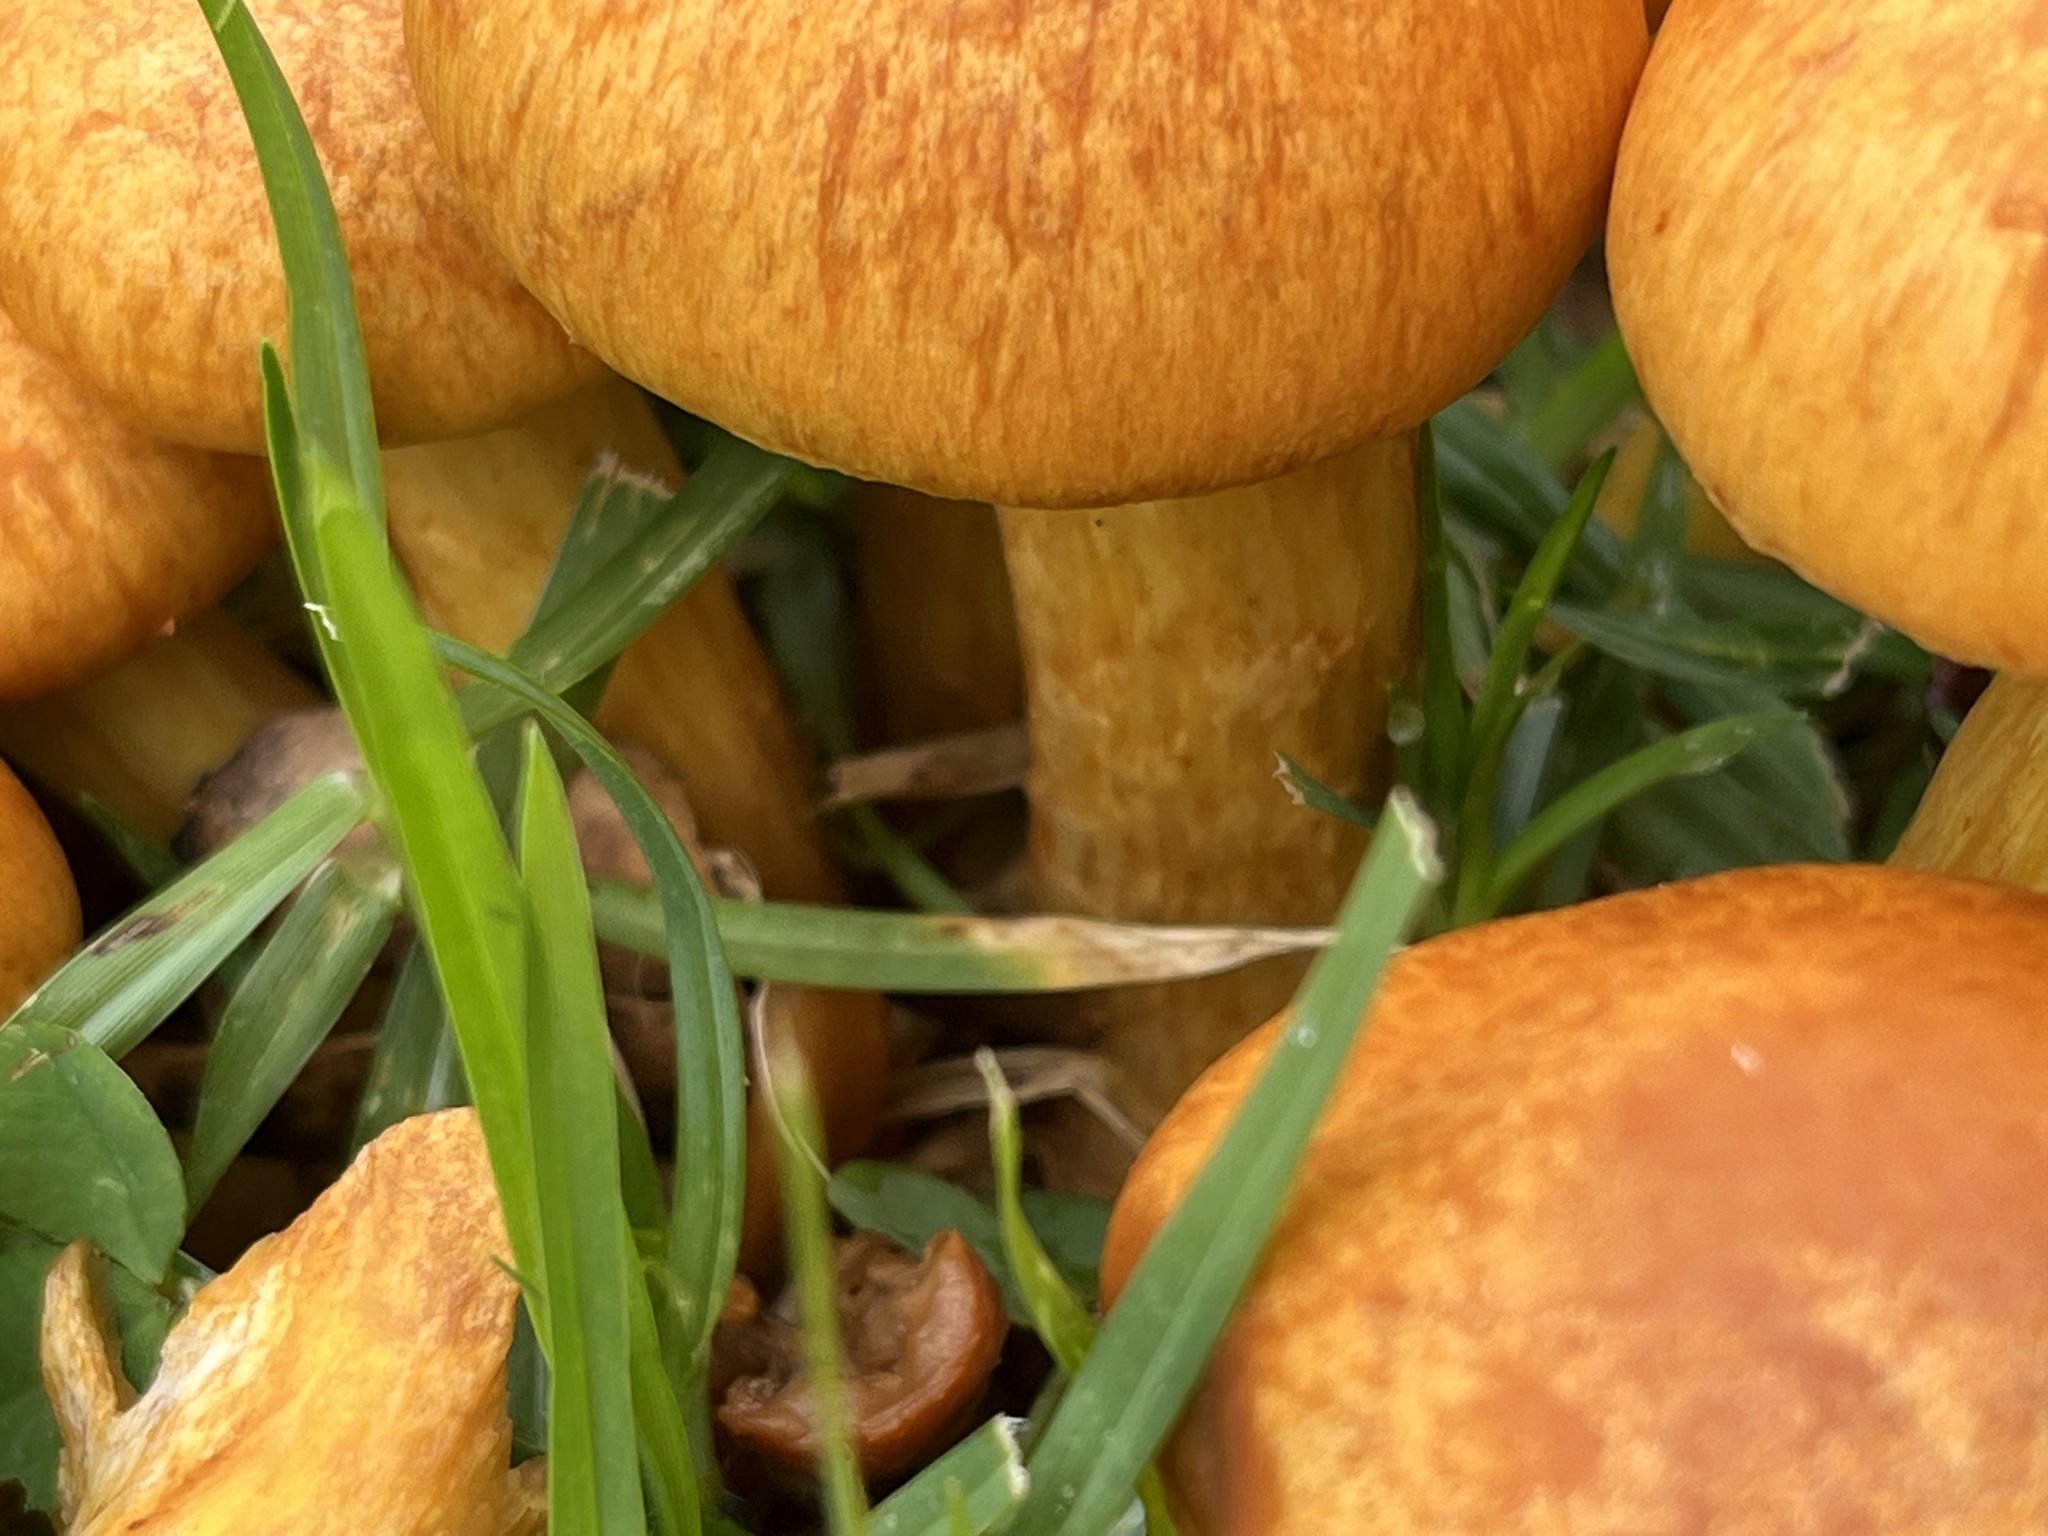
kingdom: Fungi
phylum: Basidiomycota
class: Agaricomycetes
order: Agaricales
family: Hymenogastraceae
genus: Gymnopilus
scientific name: Gymnopilus junonius
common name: Spectacular rustgill
